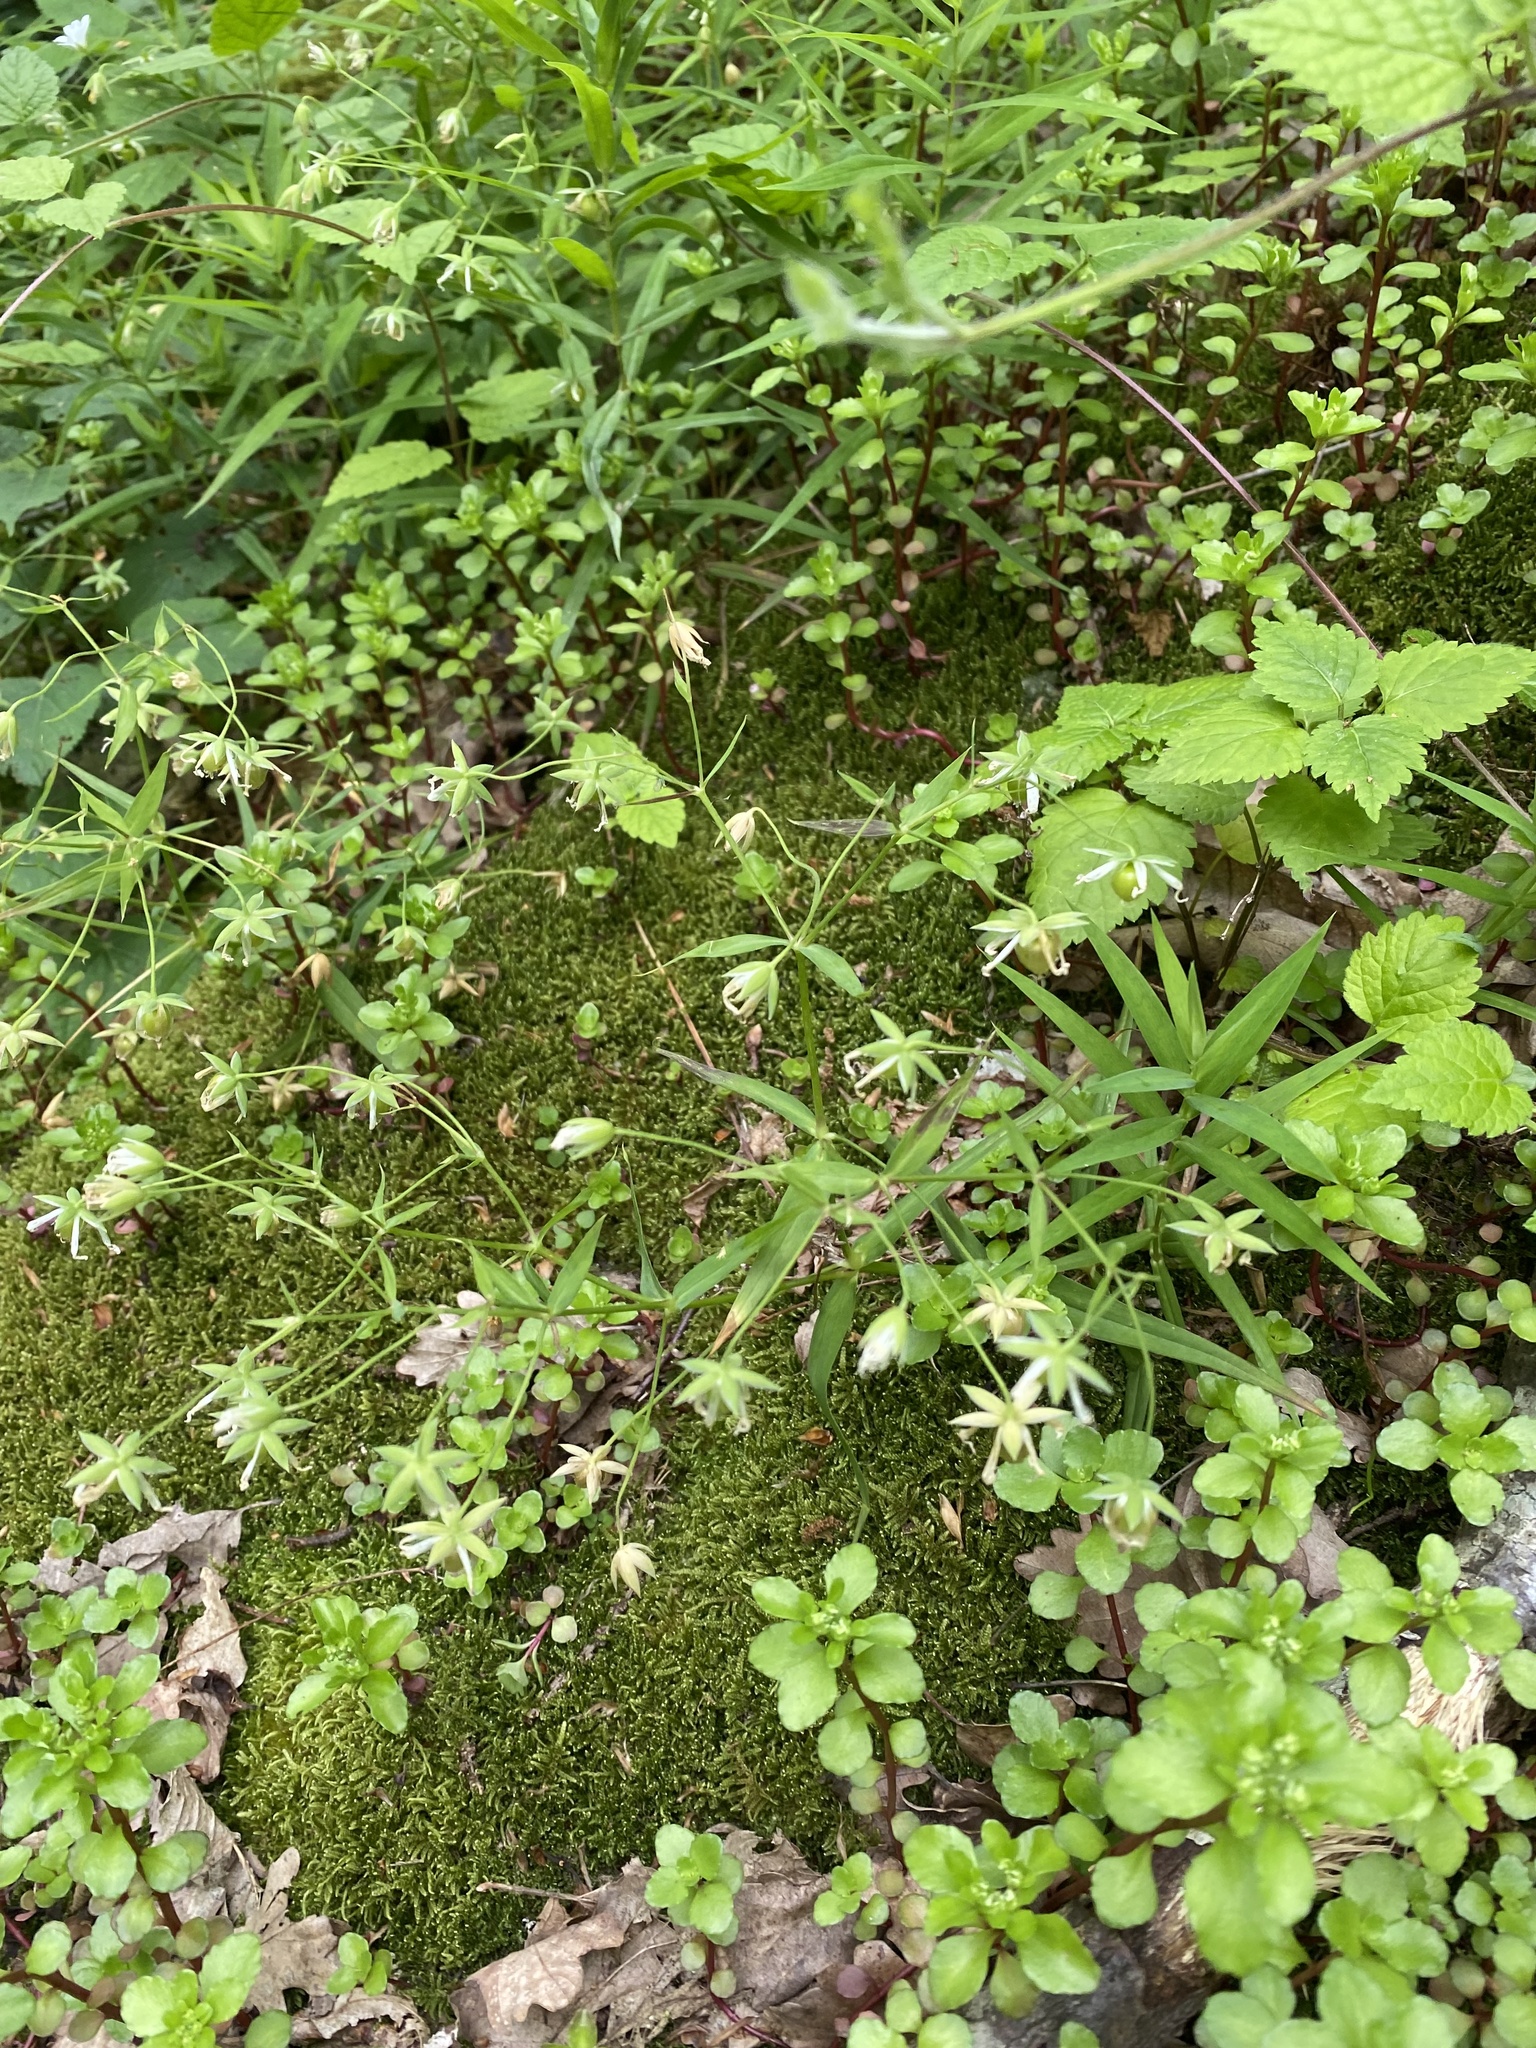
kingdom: Plantae
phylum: Tracheophyta
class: Magnoliopsida
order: Caryophyllales
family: Caryophyllaceae
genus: Rabelera
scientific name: Rabelera holostea
